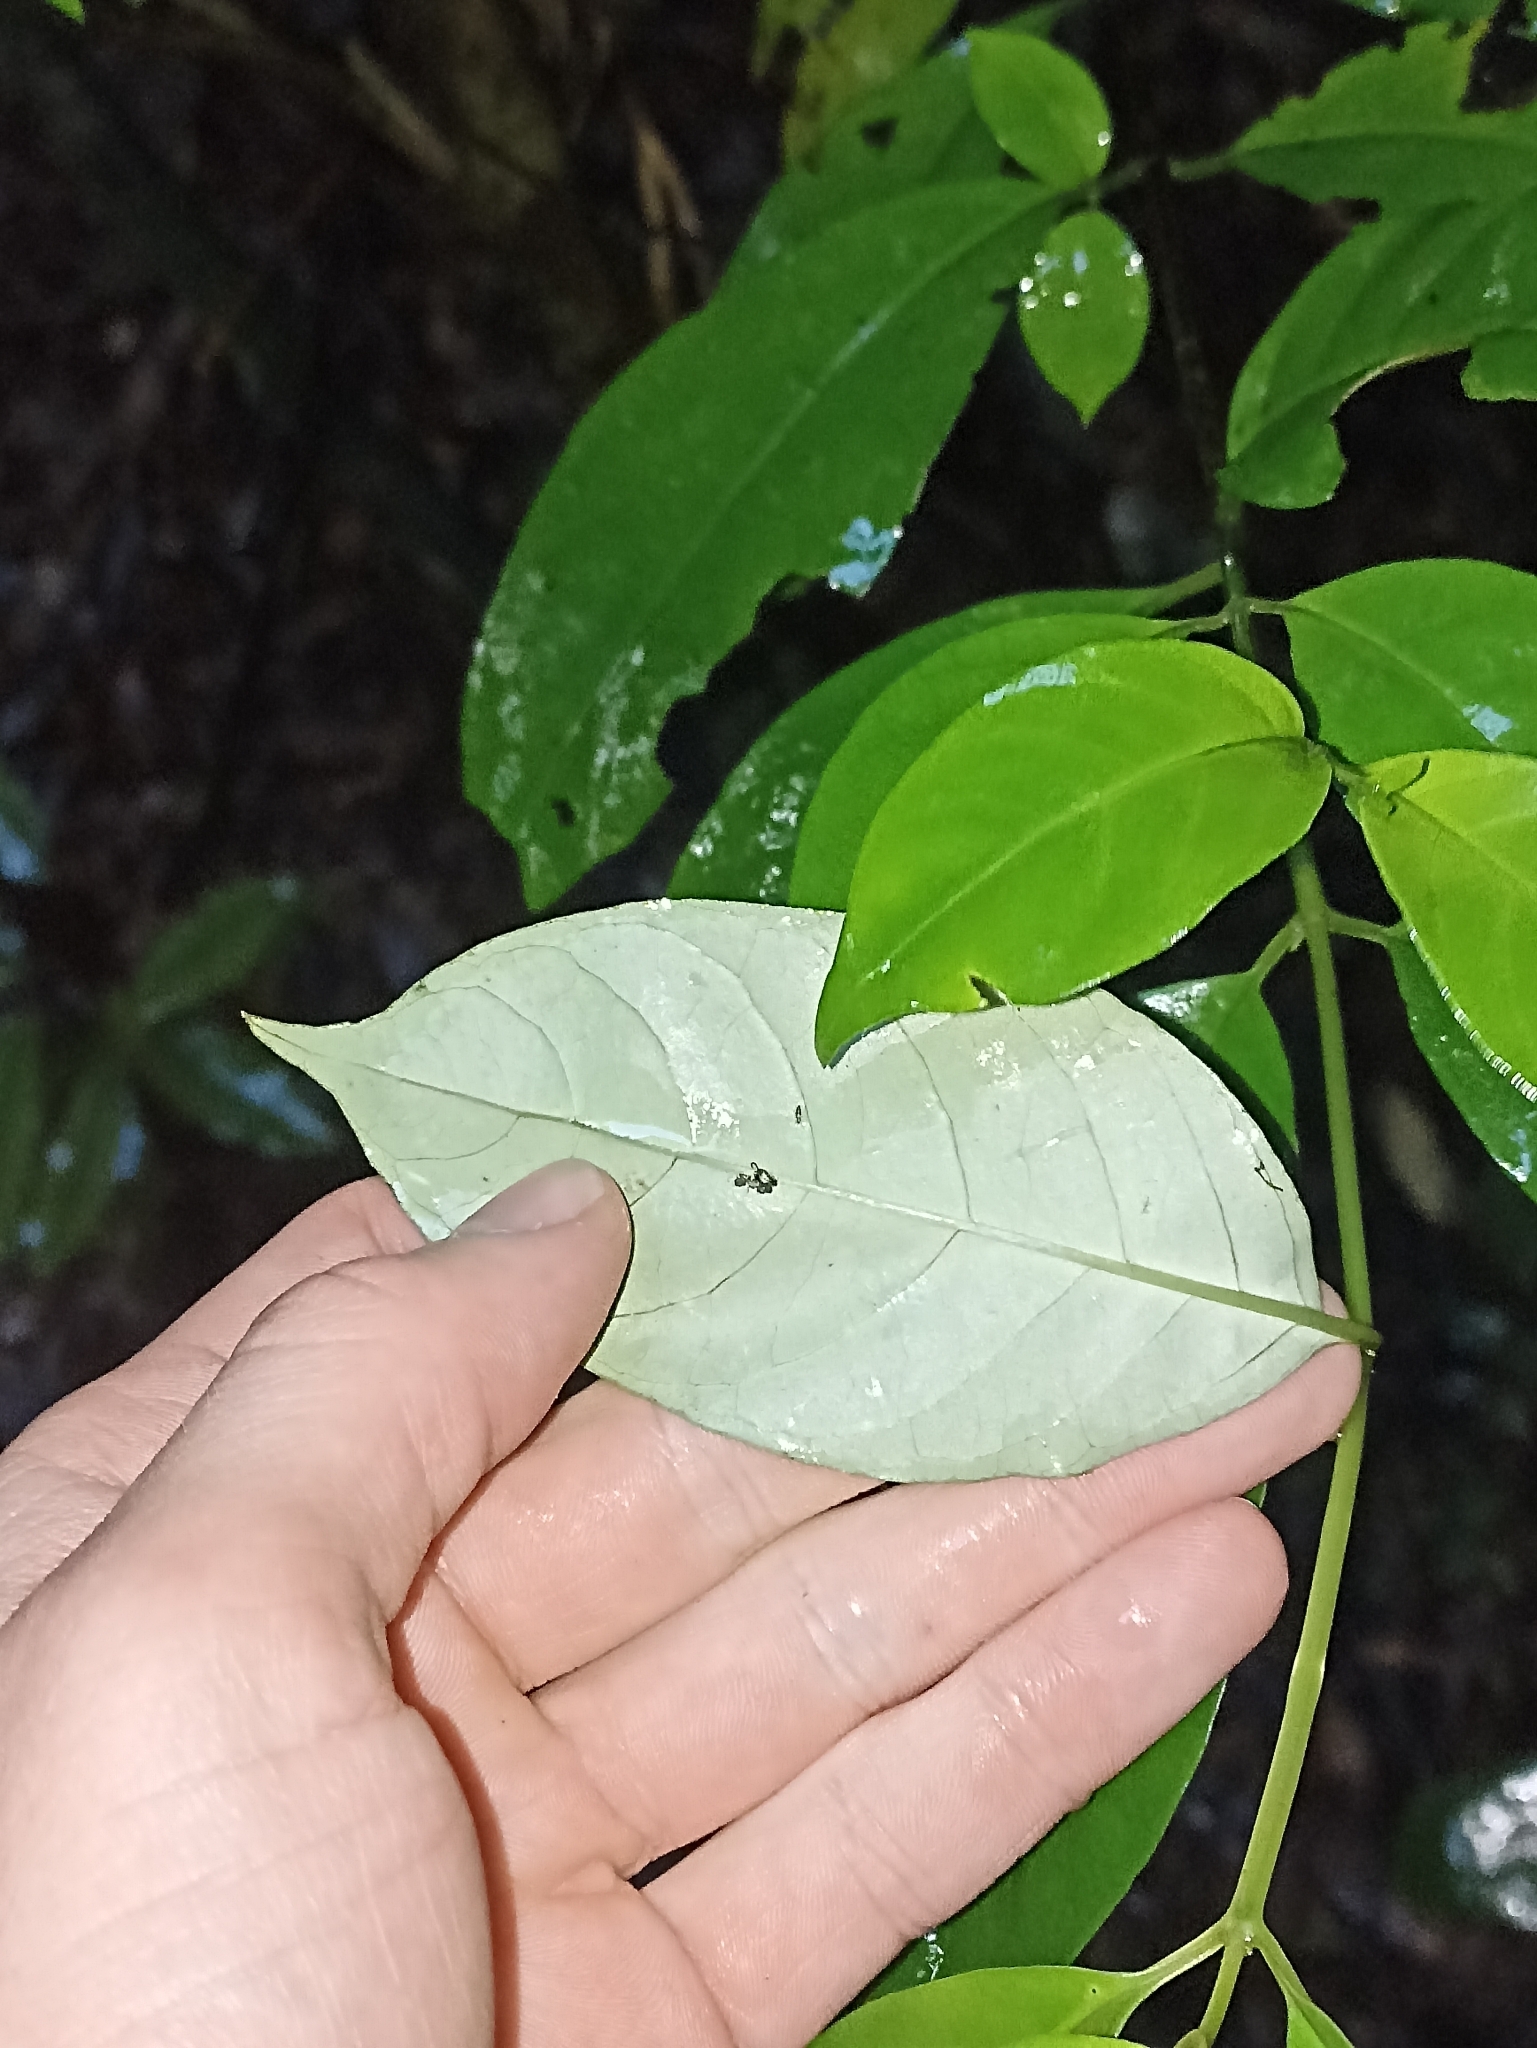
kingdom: Plantae
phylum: Tracheophyta
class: Magnoliopsida
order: Gentianales
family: Loganiaceae
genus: Geniostoma
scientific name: Geniostoma ligustrifolium
